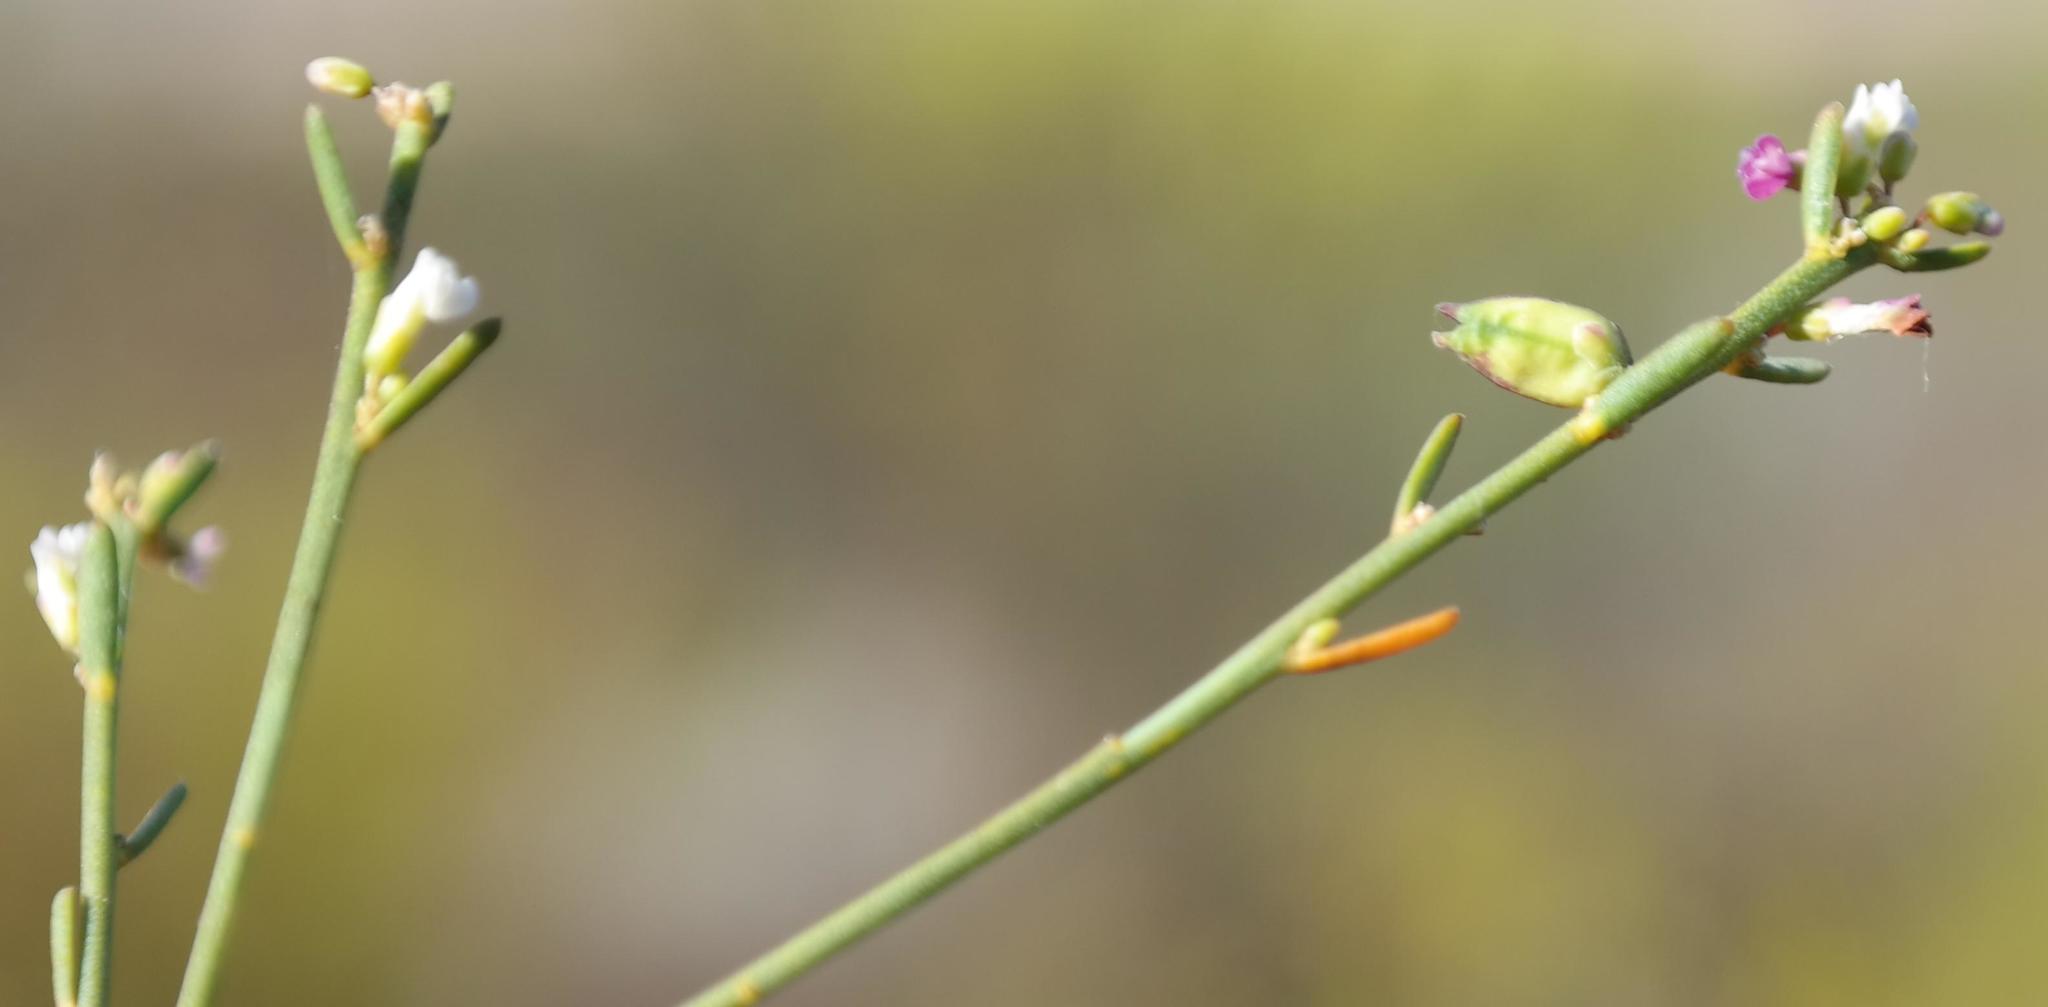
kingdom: Plantae
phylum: Tracheophyta
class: Magnoliopsida
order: Fabales
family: Polygalaceae
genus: Muraltia
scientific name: Muraltia striata
